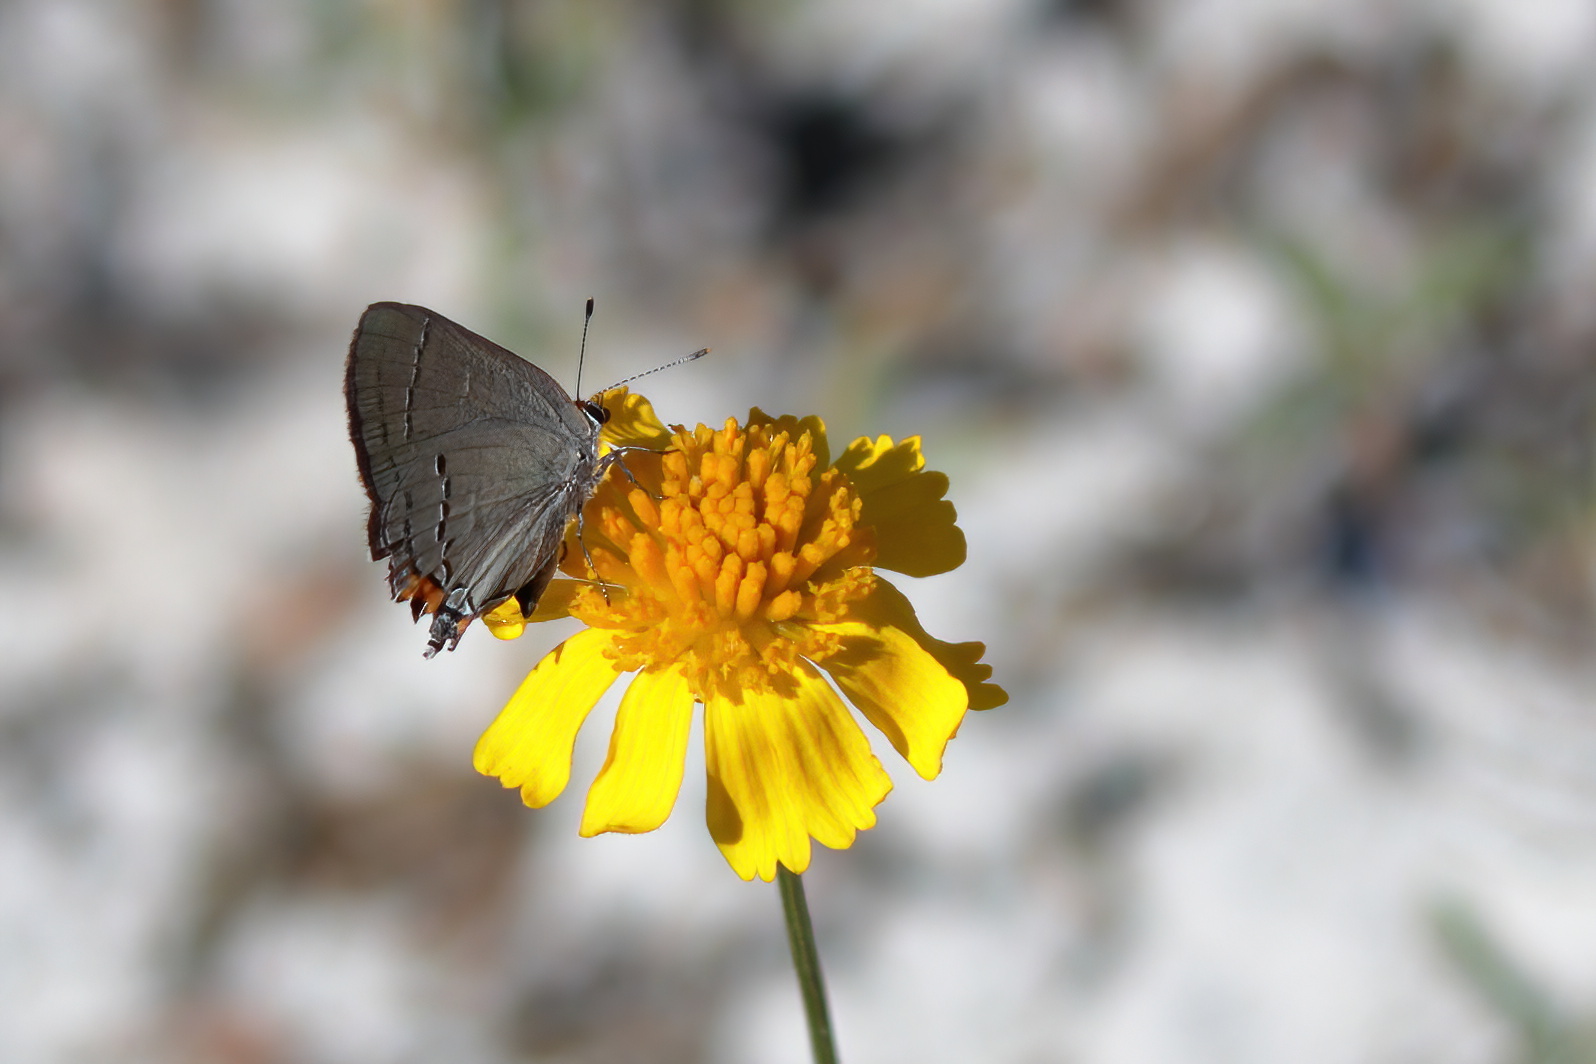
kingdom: Animalia
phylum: Arthropoda
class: Insecta
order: Lepidoptera
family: Lycaenidae
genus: Strymon
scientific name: Strymon melinus
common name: Gray hairstreak
